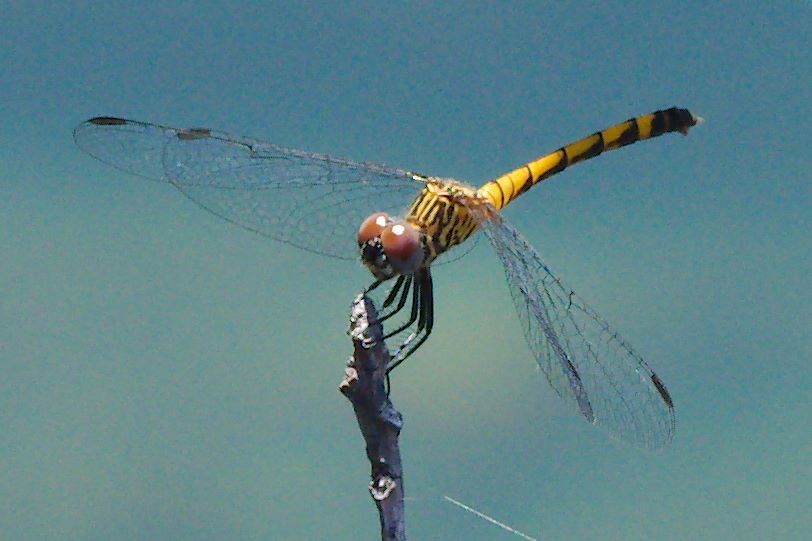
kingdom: Animalia
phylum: Arthropoda
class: Insecta
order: Odonata
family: Libellulidae
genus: Erythrodiplax
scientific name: Erythrodiplax berenice
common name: Seaside dragonlet
